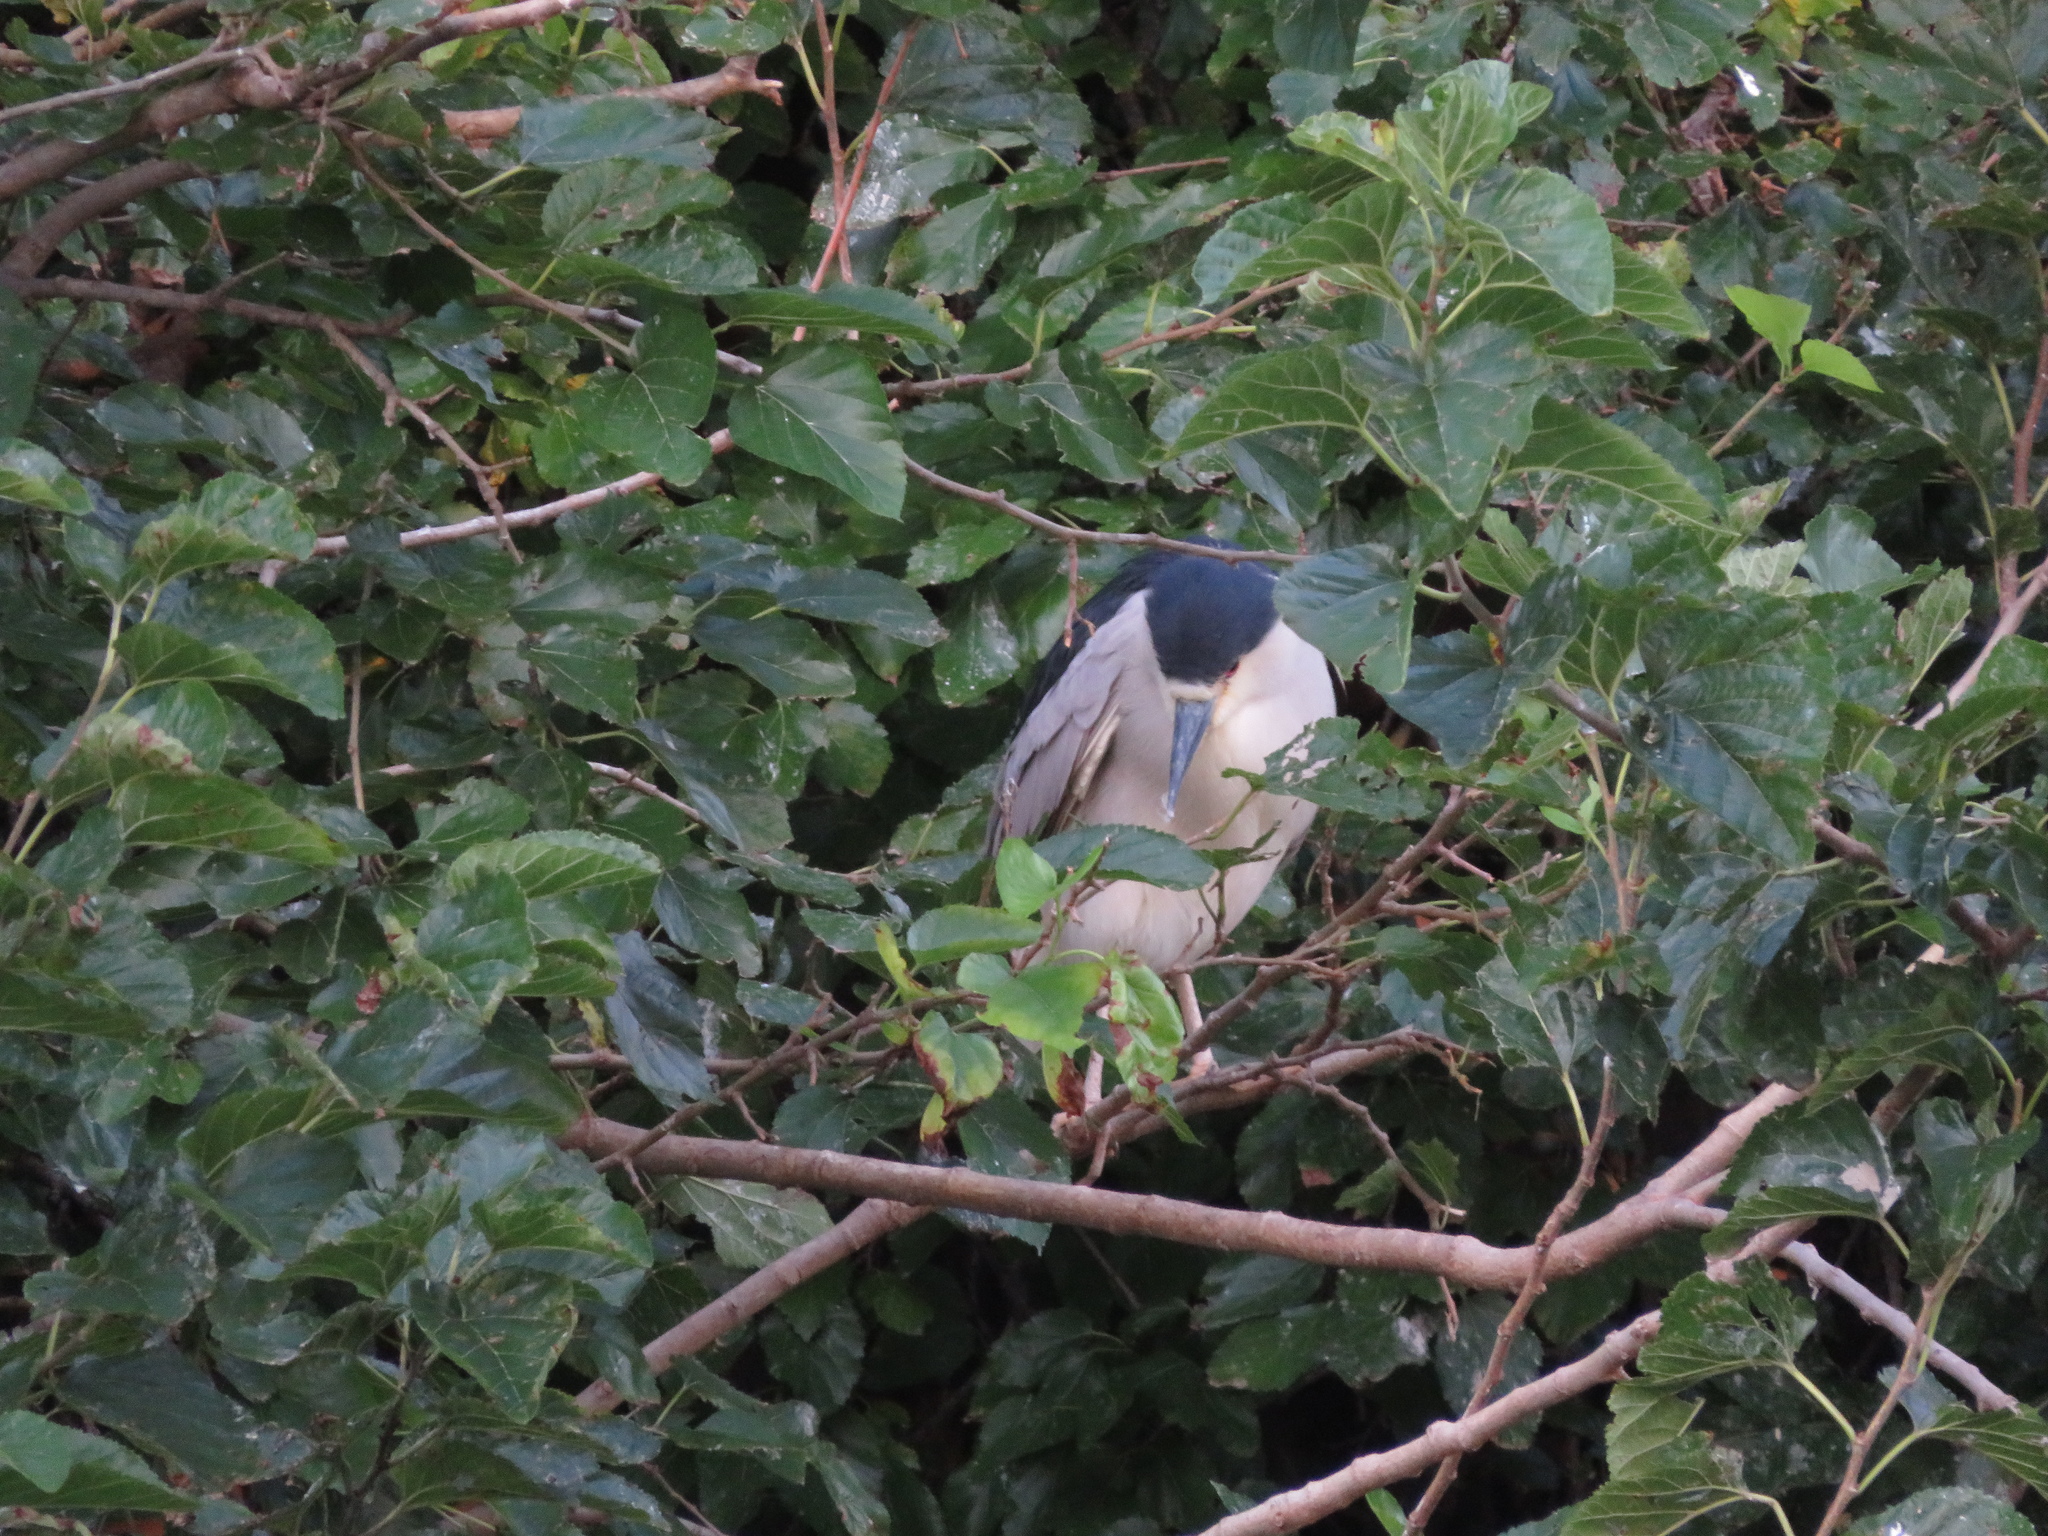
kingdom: Animalia
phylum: Chordata
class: Aves
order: Pelecaniformes
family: Ardeidae
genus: Nycticorax
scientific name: Nycticorax nycticorax
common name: Black-crowned night heron
